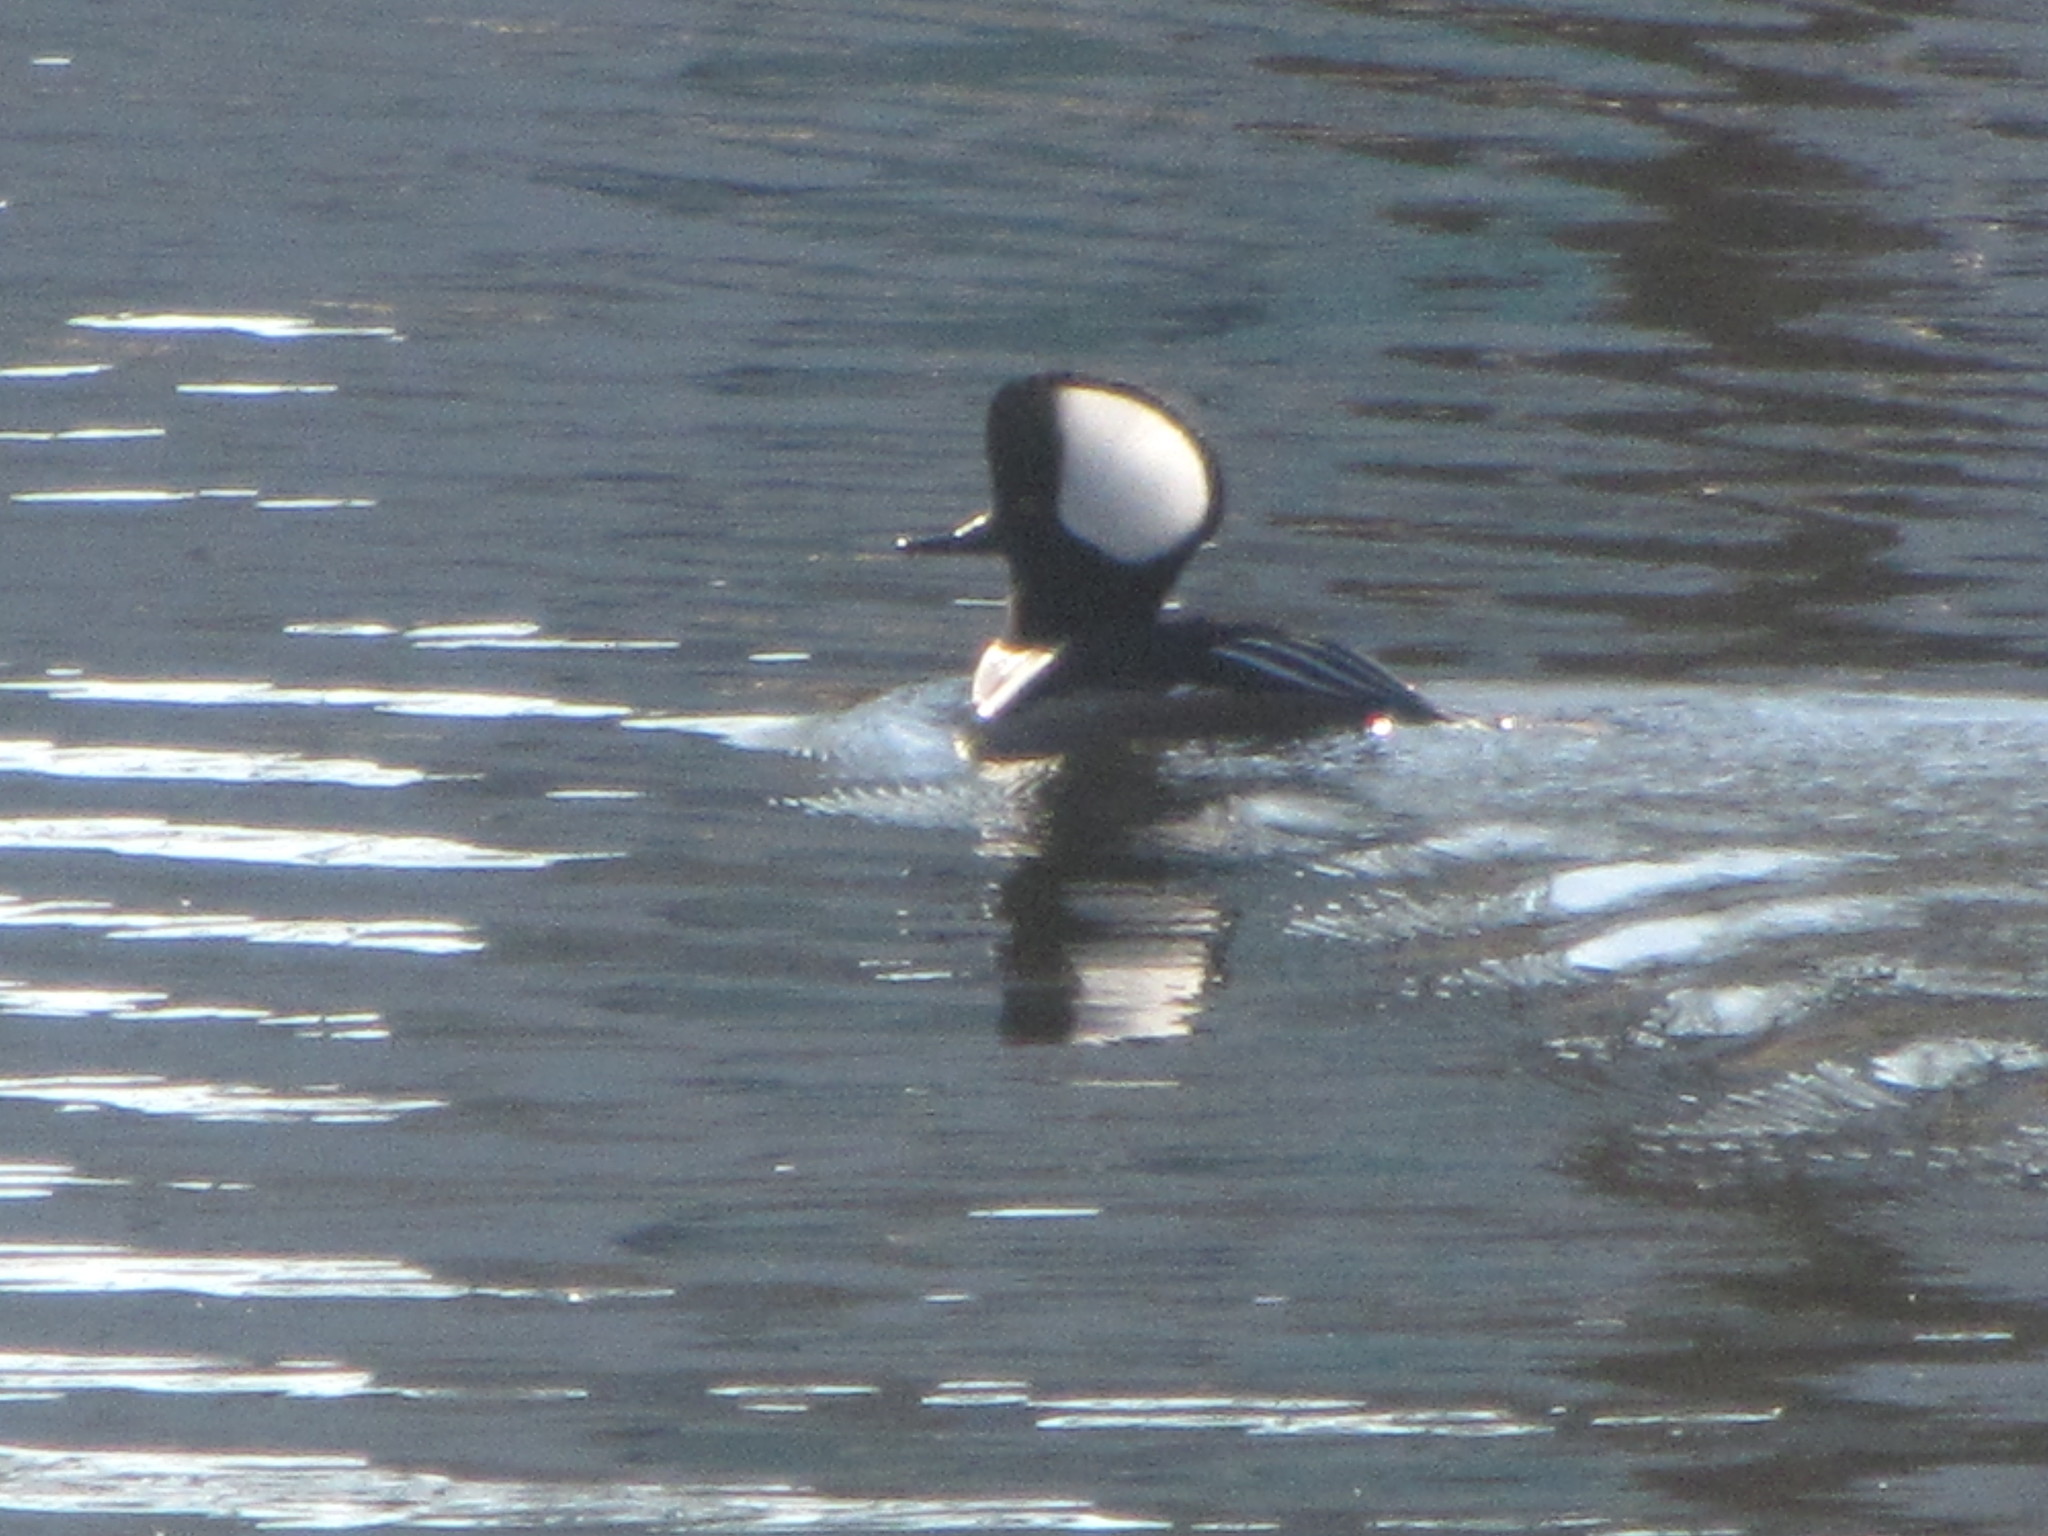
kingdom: Animalia
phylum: Chordata
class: Aves
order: Anseriformes
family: Anatidae
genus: Lophodytes
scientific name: Lophodytes cucullatus
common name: Hooded merganser
